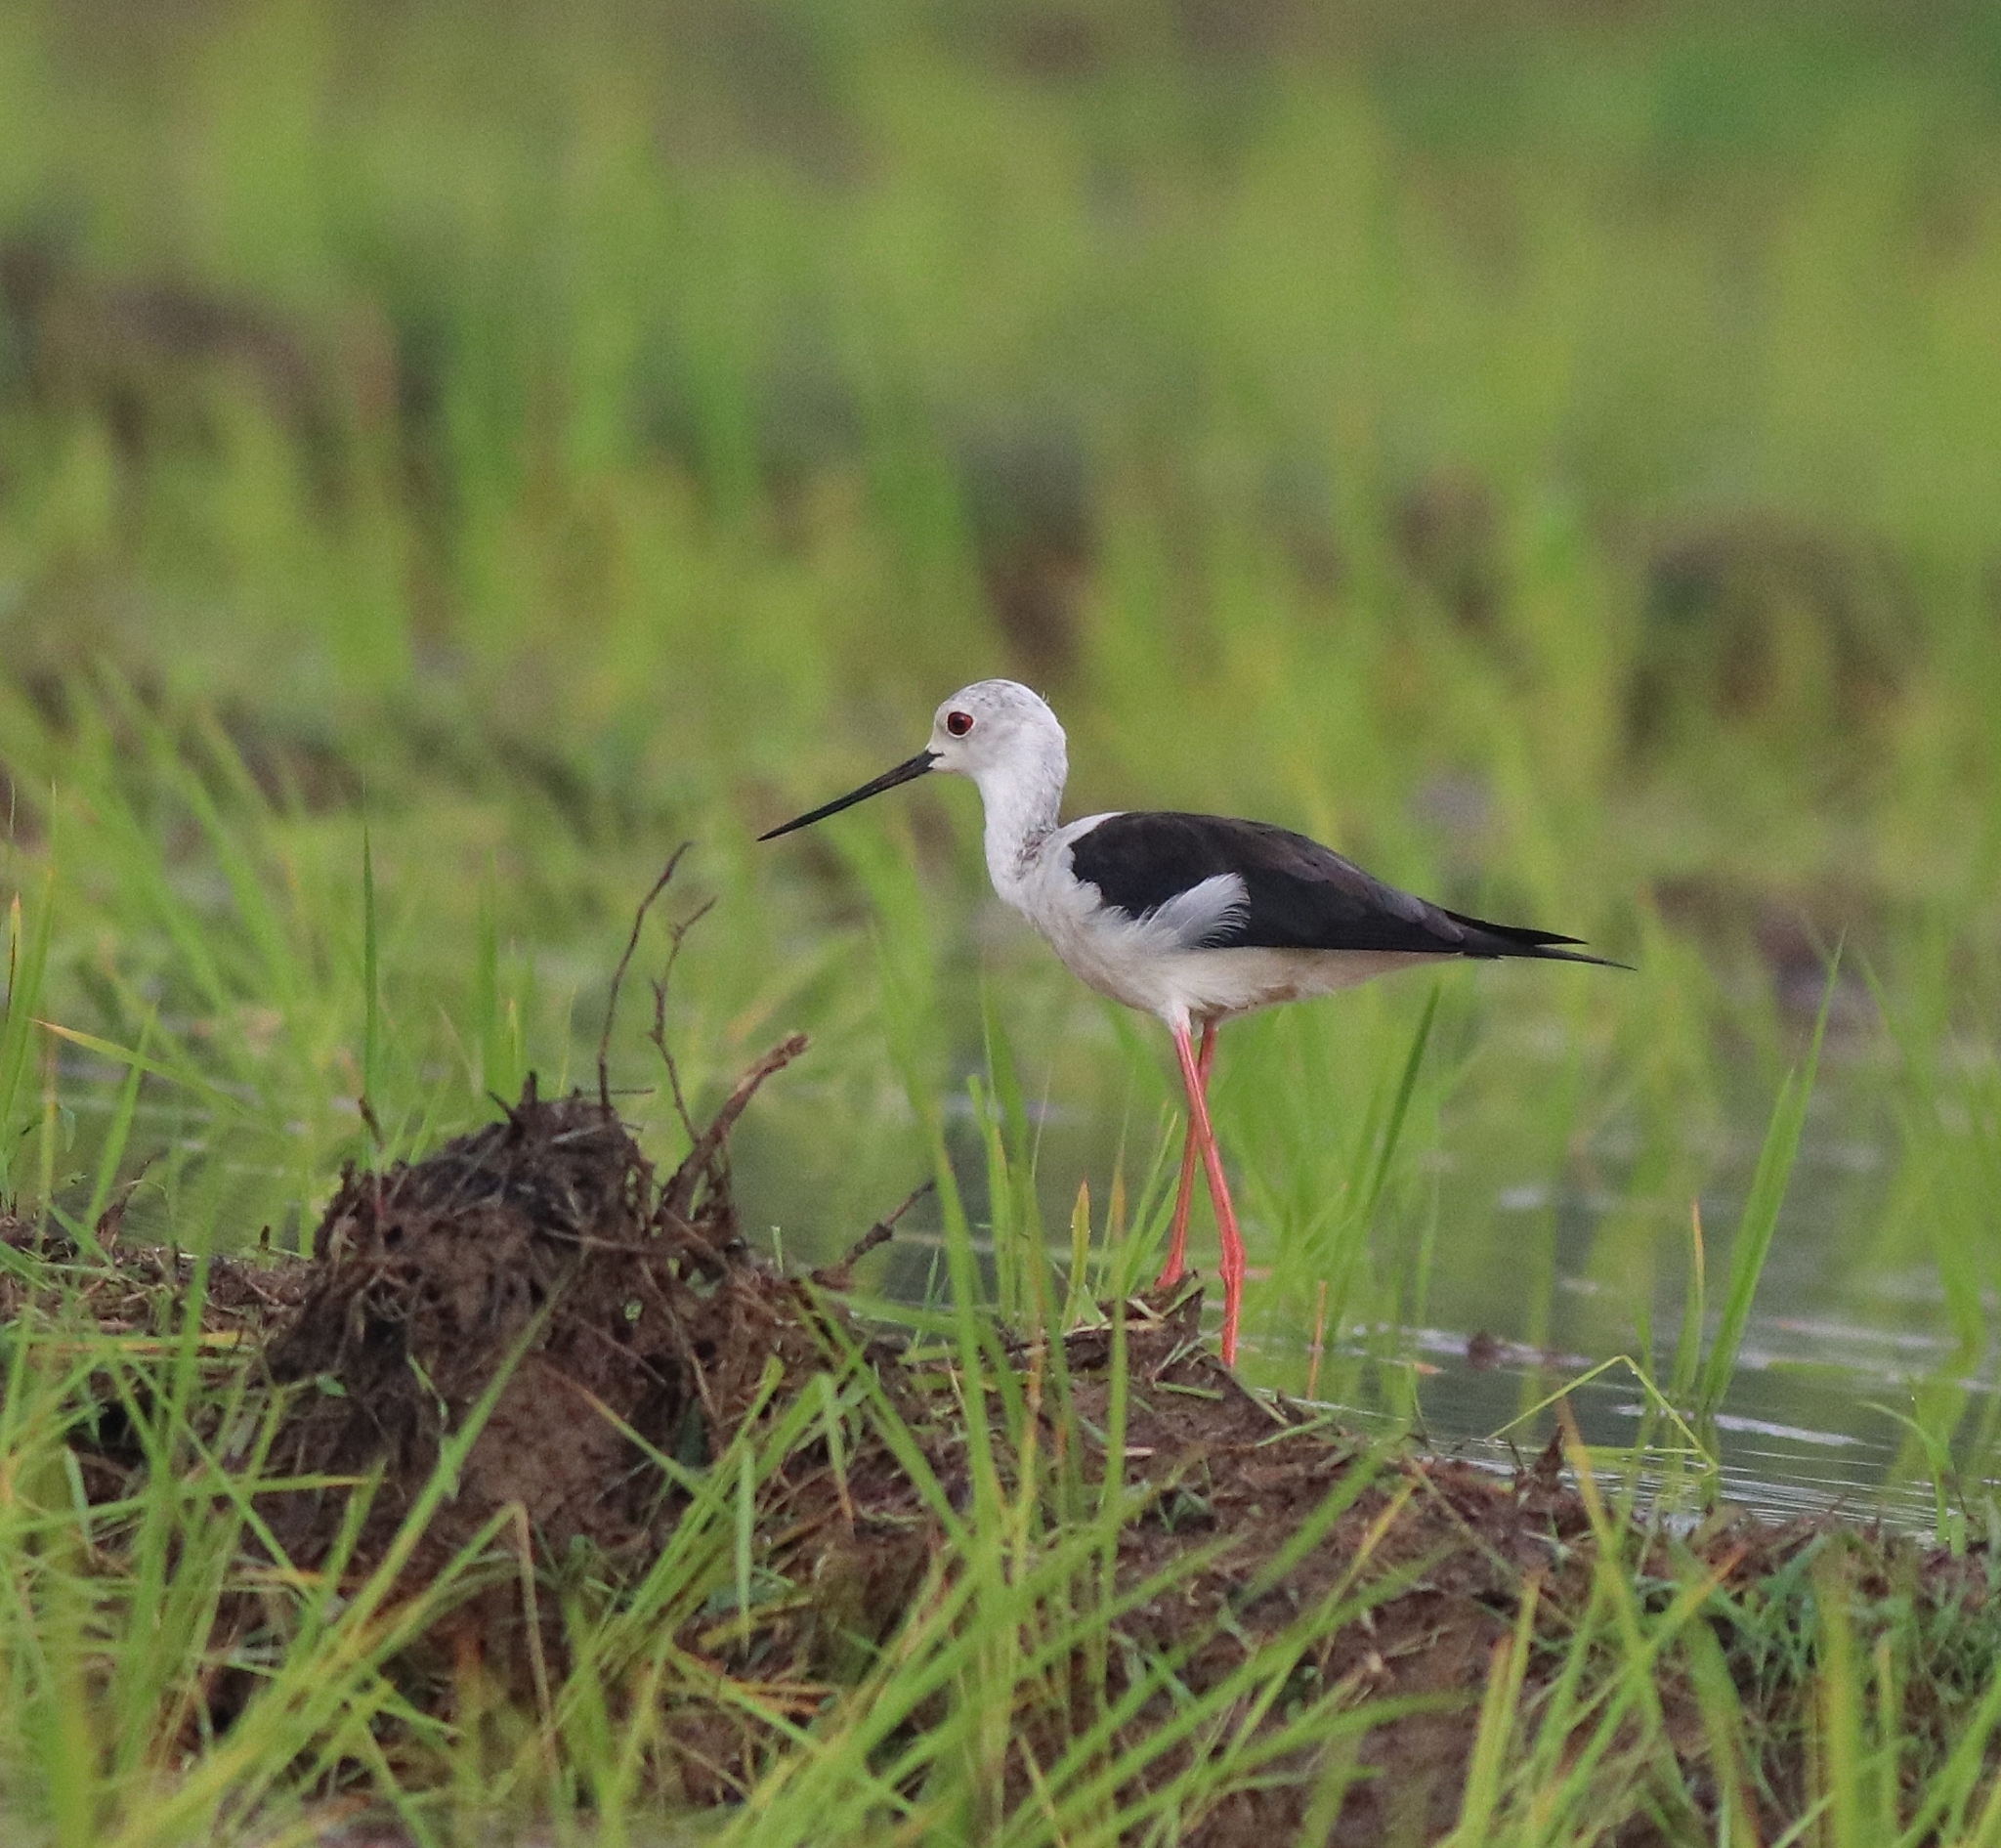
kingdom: Animalia
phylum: Chordata
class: Aves
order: Charadriiformes
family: Recurvirostridae
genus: Himantopus
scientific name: Himantopus himantopus
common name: Black-winged stilt
